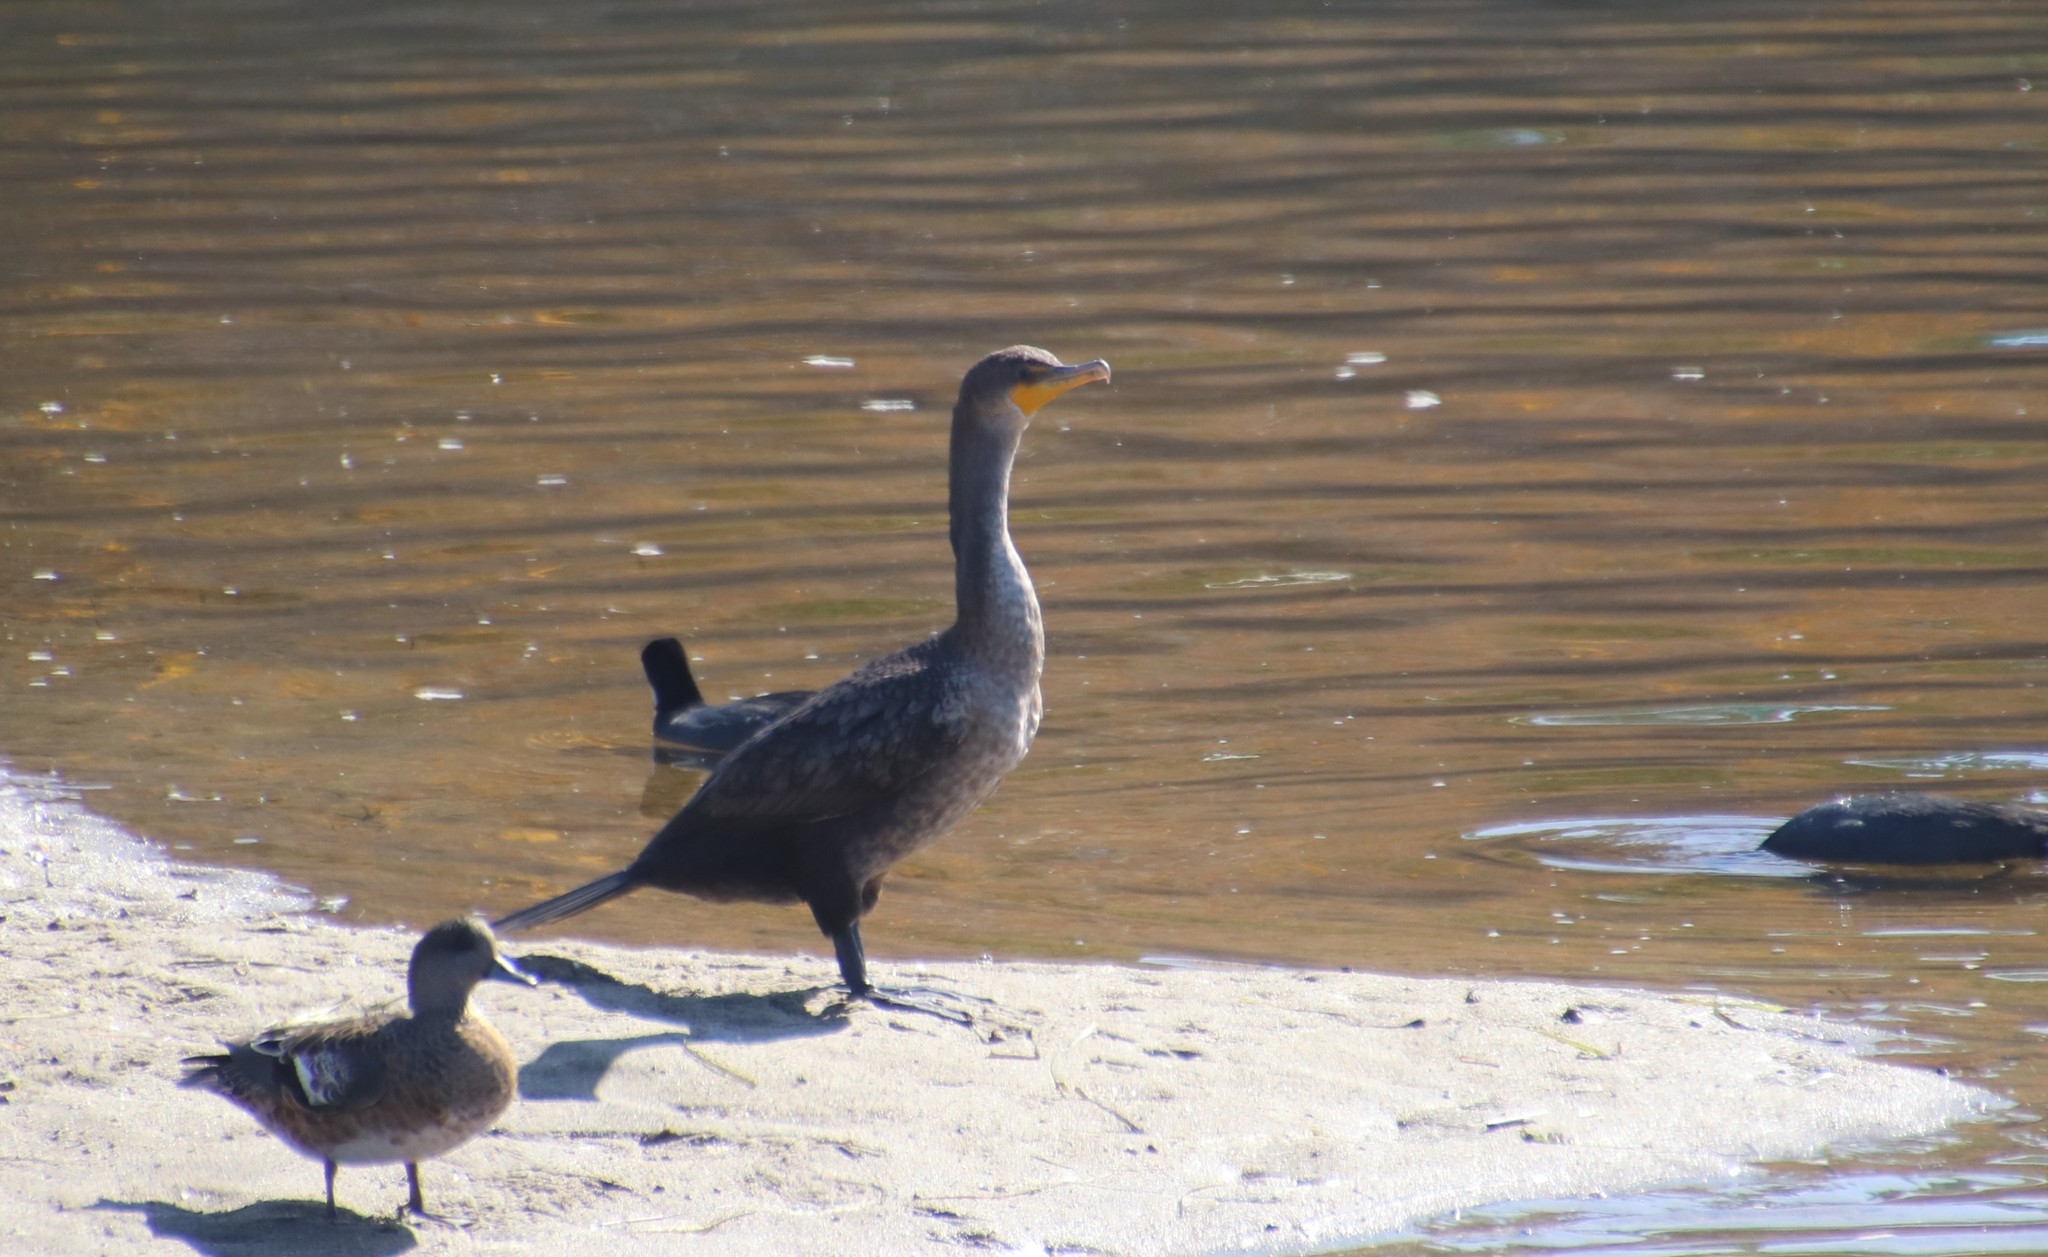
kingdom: Animalia
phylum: Chordata
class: Aves
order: Suliformes
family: Phalacrocoracidae
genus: Phalacrocorax
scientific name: Phalacrocorax auritus
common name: Double-crested cormorant
